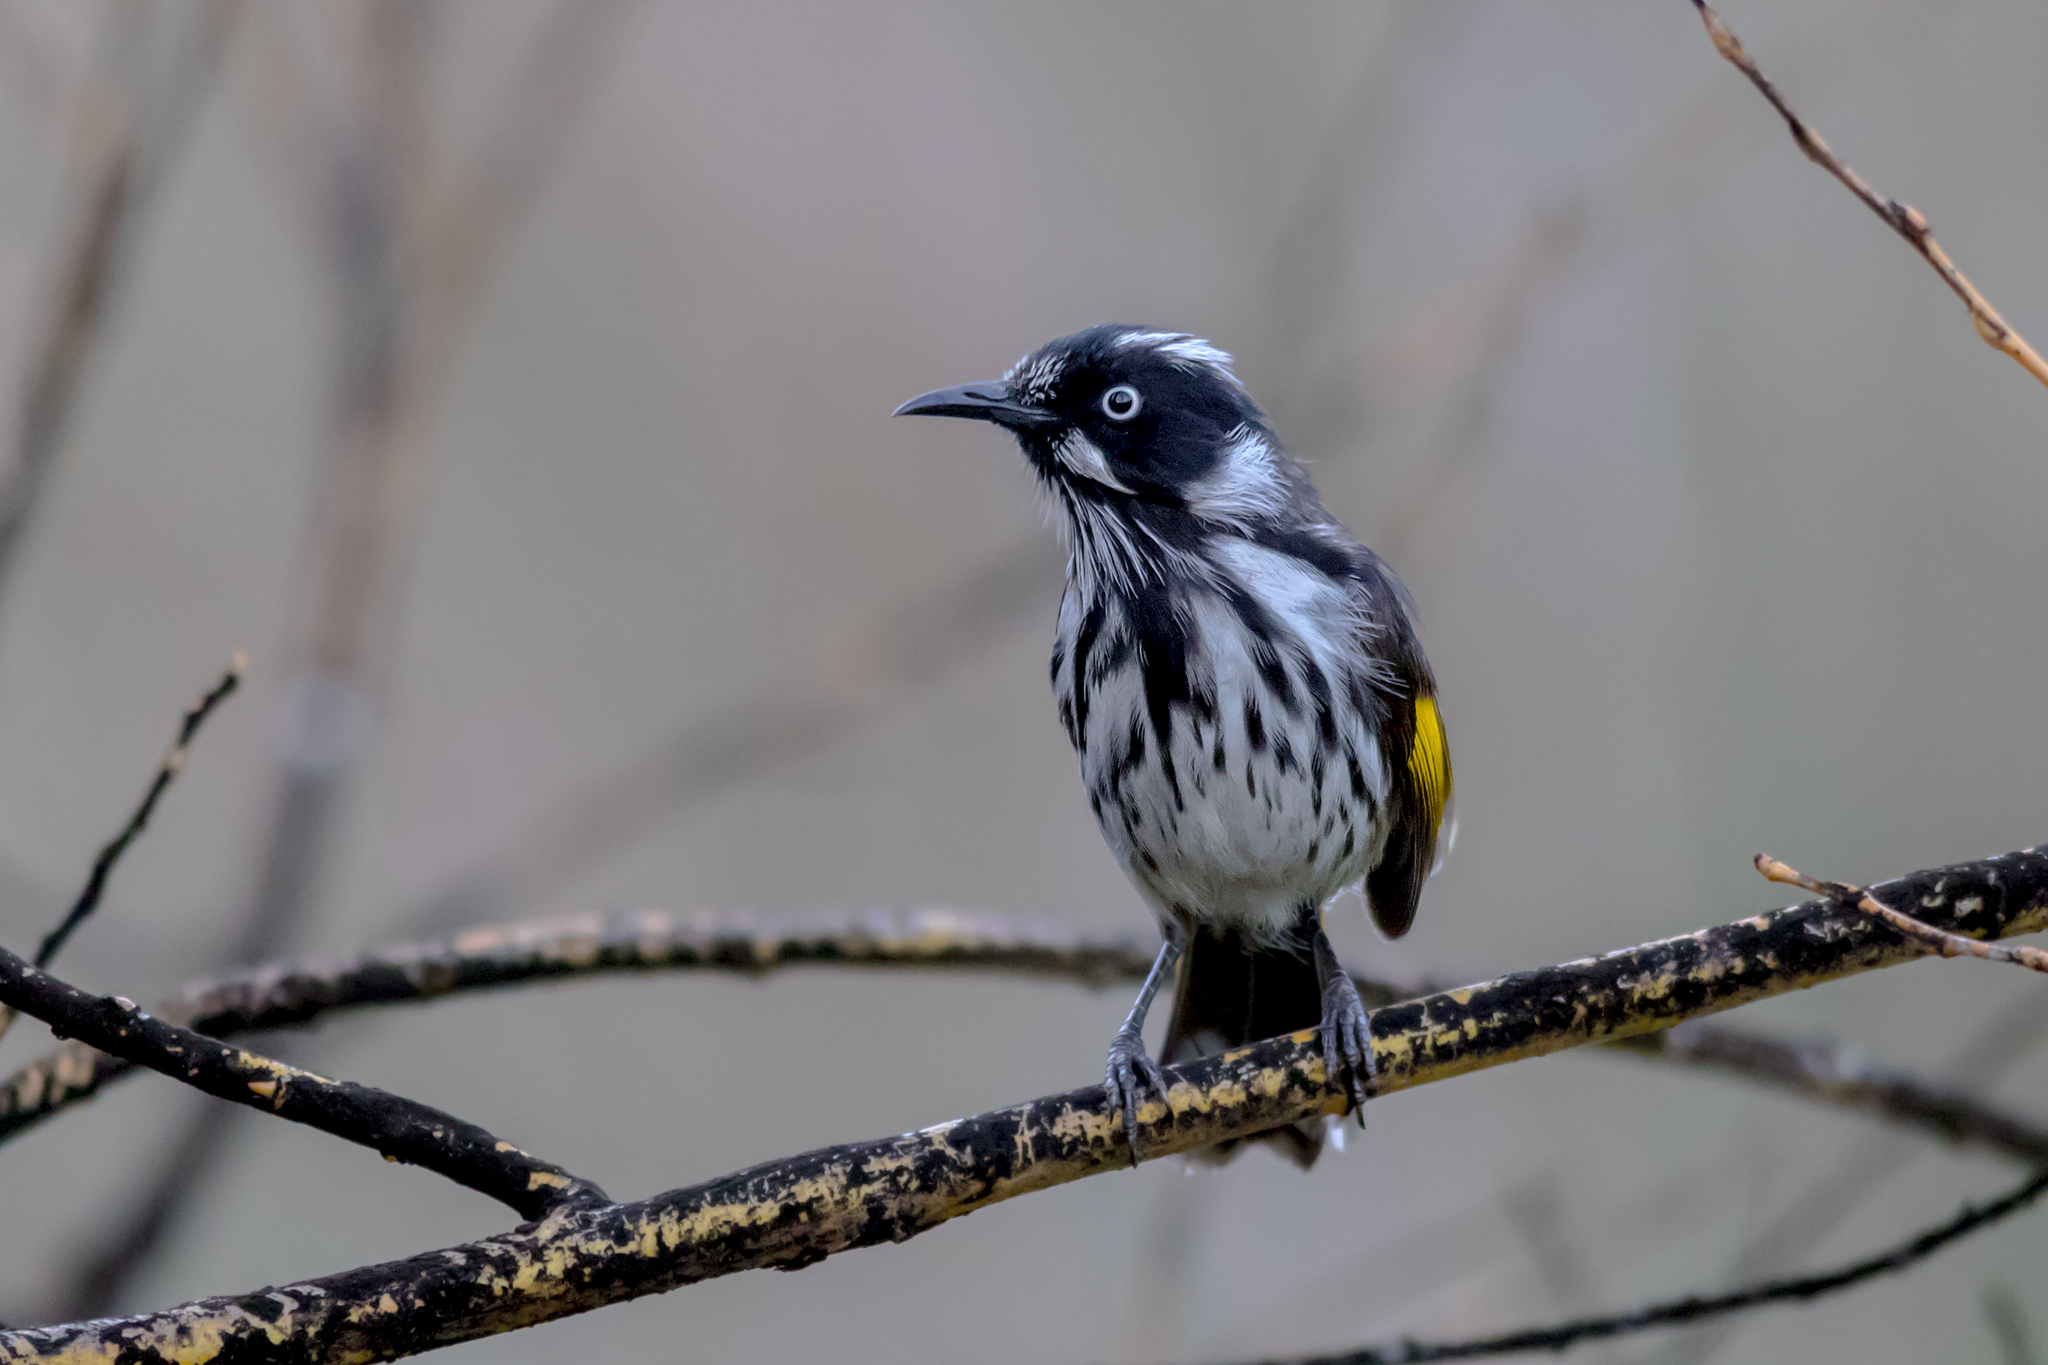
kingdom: Animalia
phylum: Chordata
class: Aves
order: Passeriformes
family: Meliphagidae
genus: Phylidonyris
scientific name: Phylidonyris novaehollandiae
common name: New holland honeyeater
